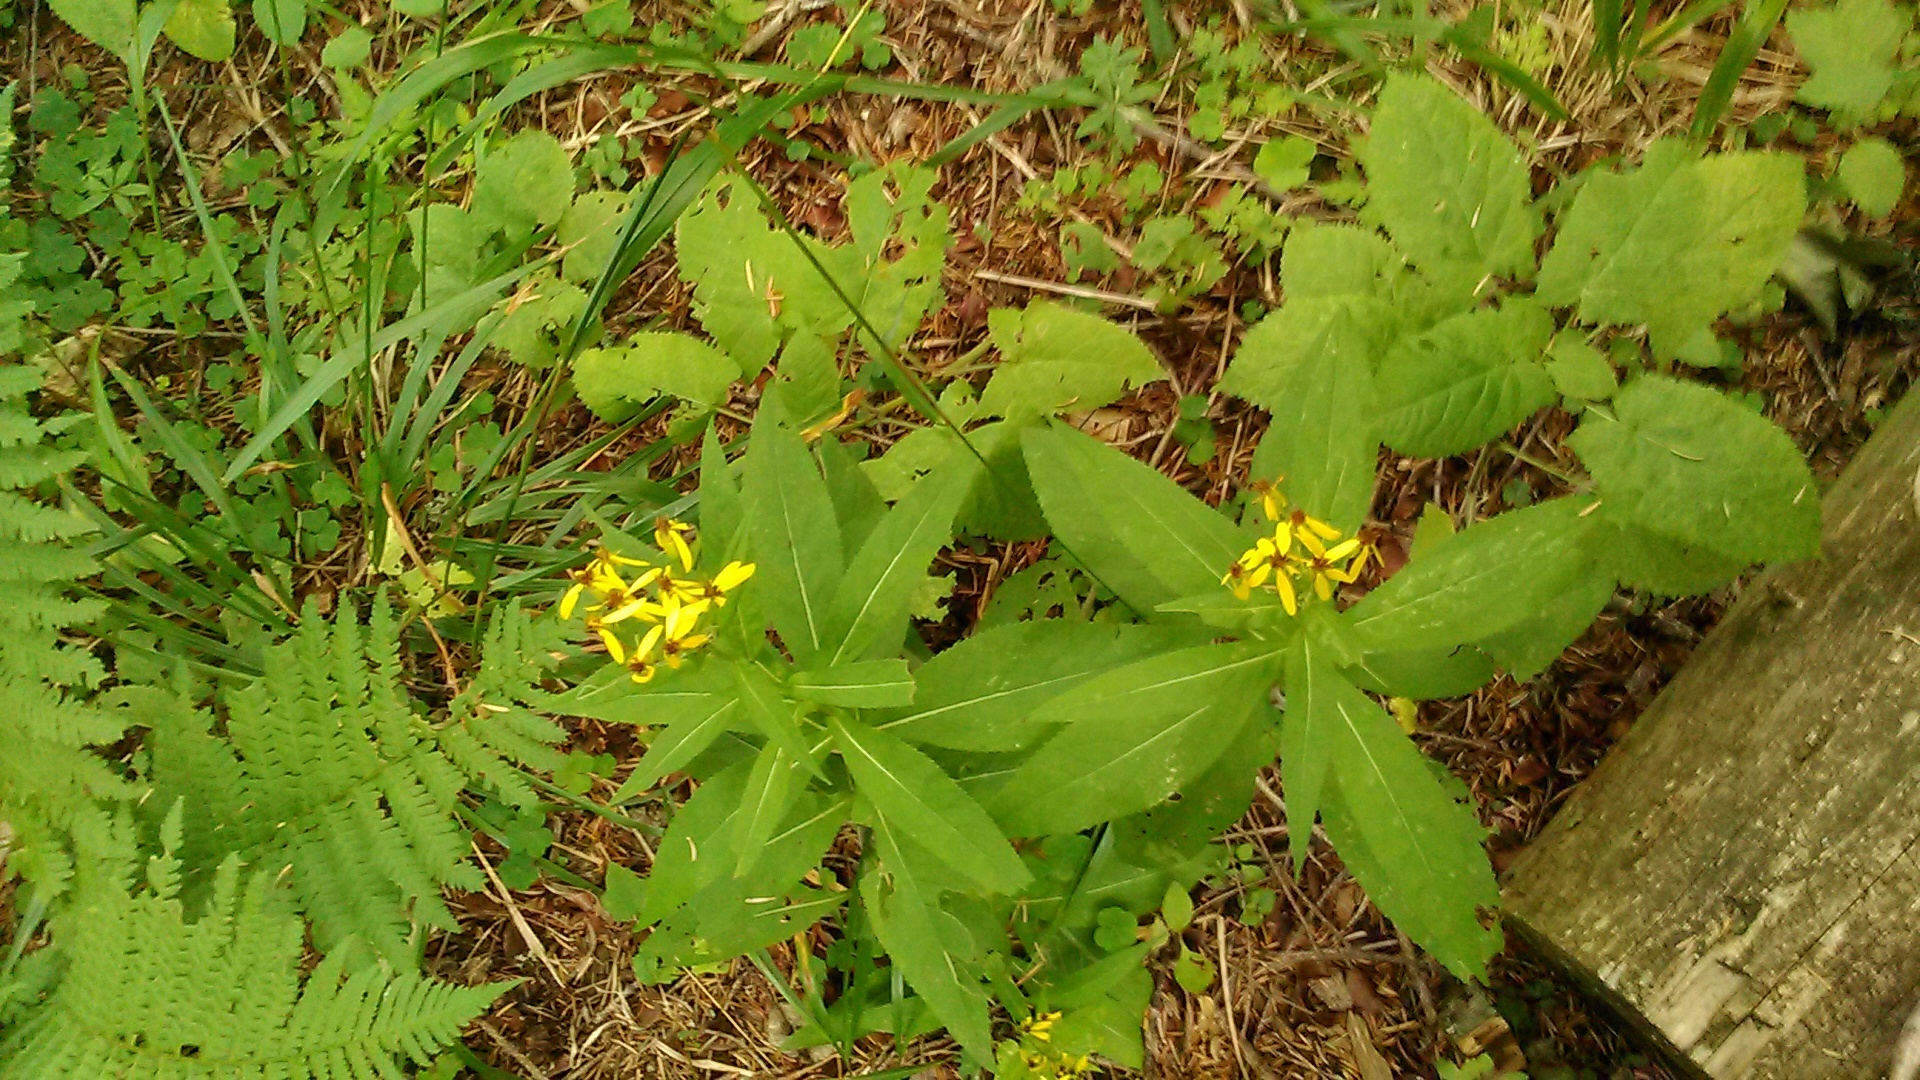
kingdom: Plantae
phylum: Tracheophyta
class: Magnoliopsida
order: Asterales
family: Asteraceae
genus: Senecio
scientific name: Senecio propinquus
